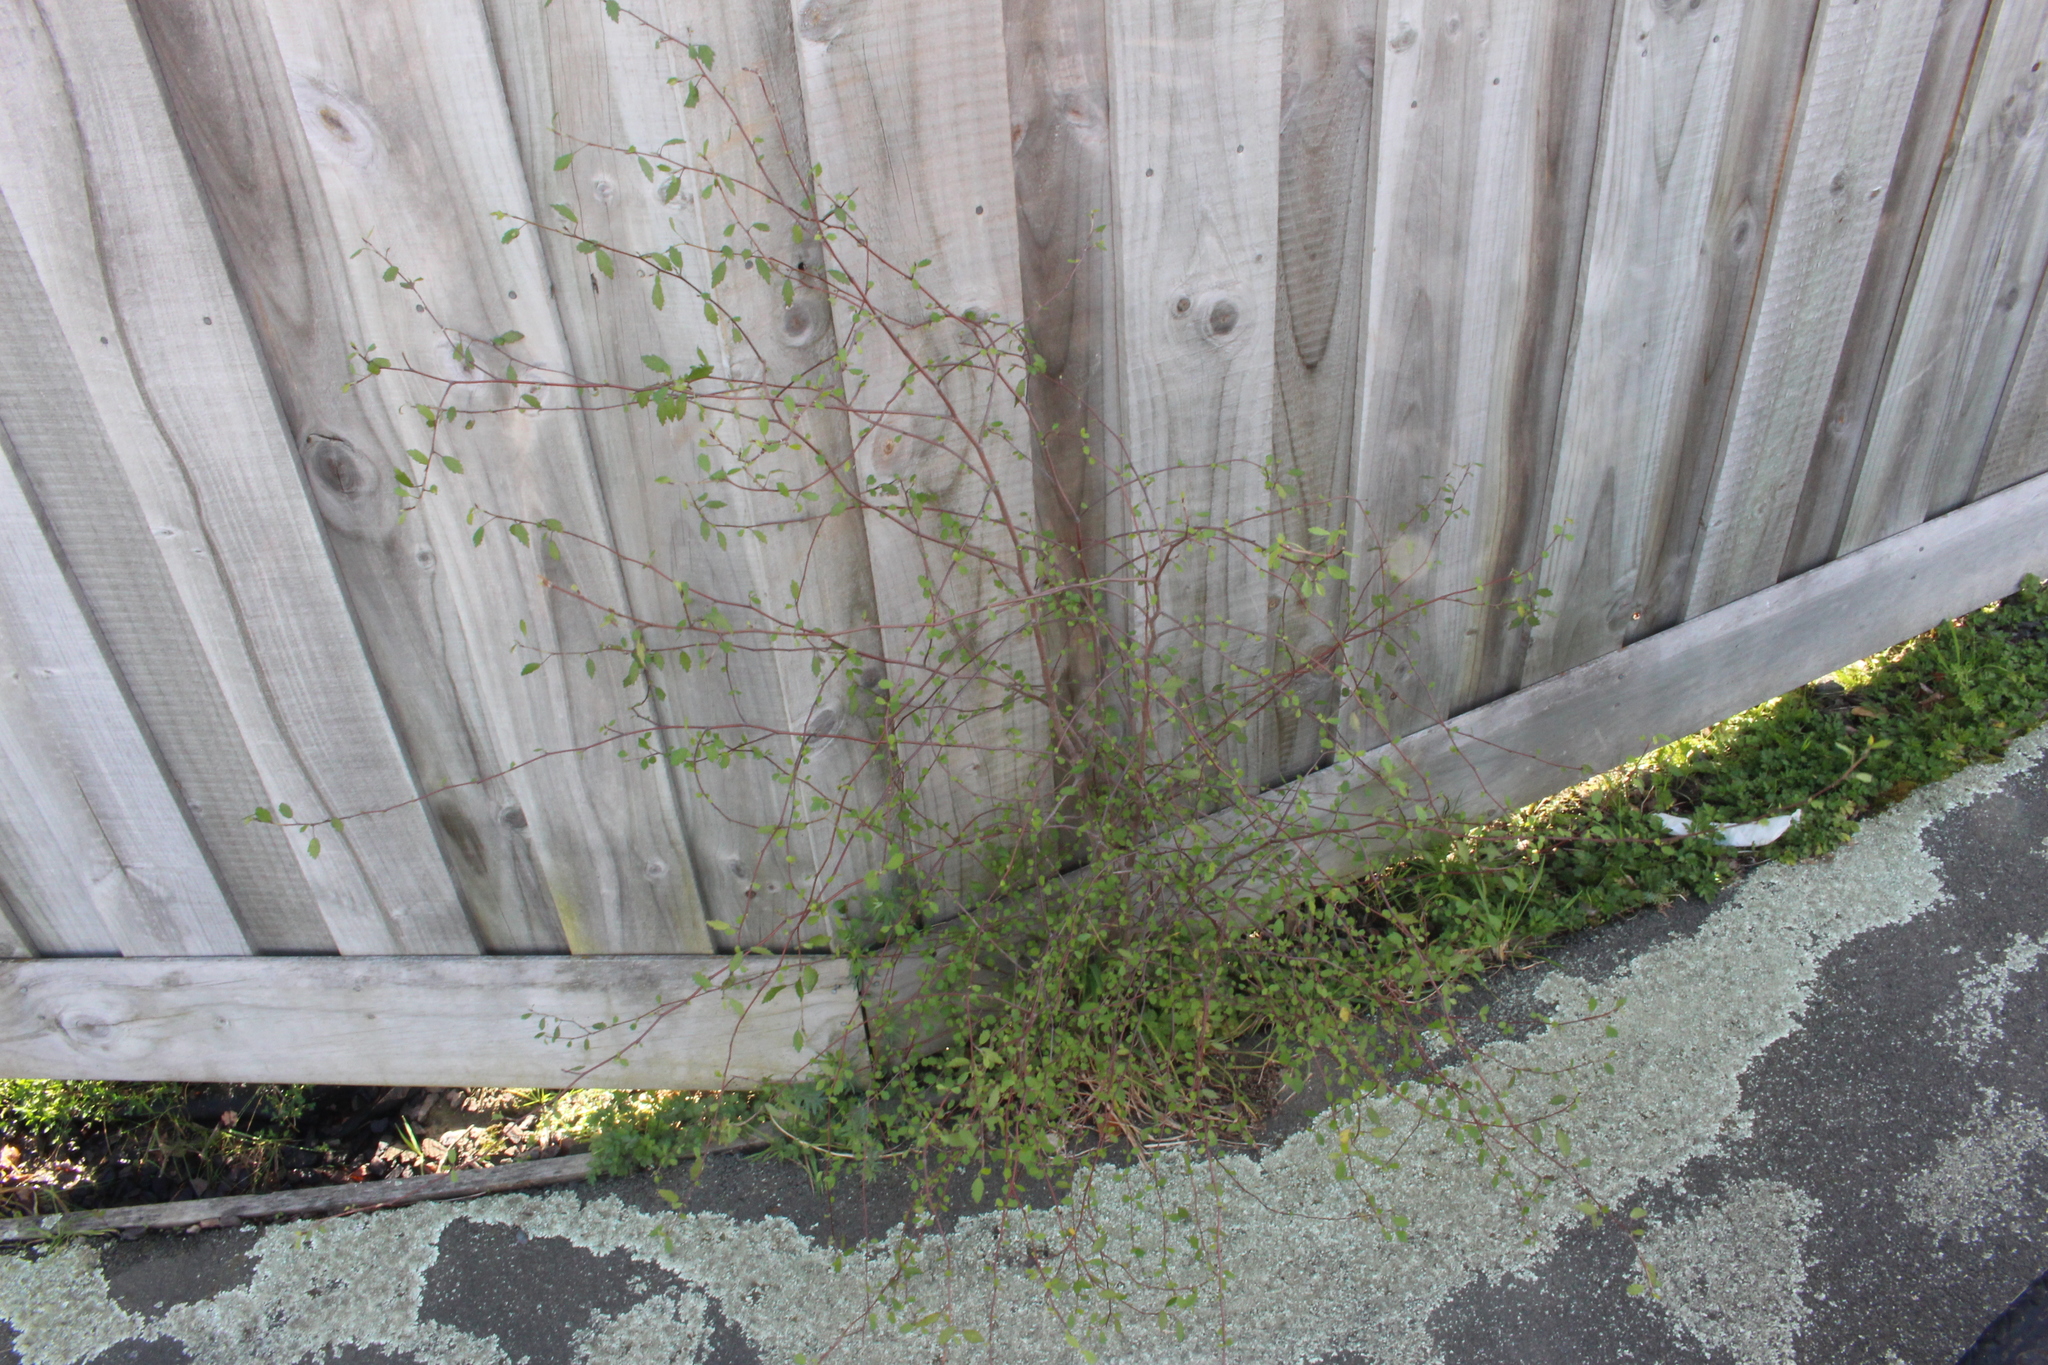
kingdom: Plantae
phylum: Tracheophyta
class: Magnoliopsida
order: Malvales
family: Malvaceae
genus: Plagianthus
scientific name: Plagianthus cymosus
